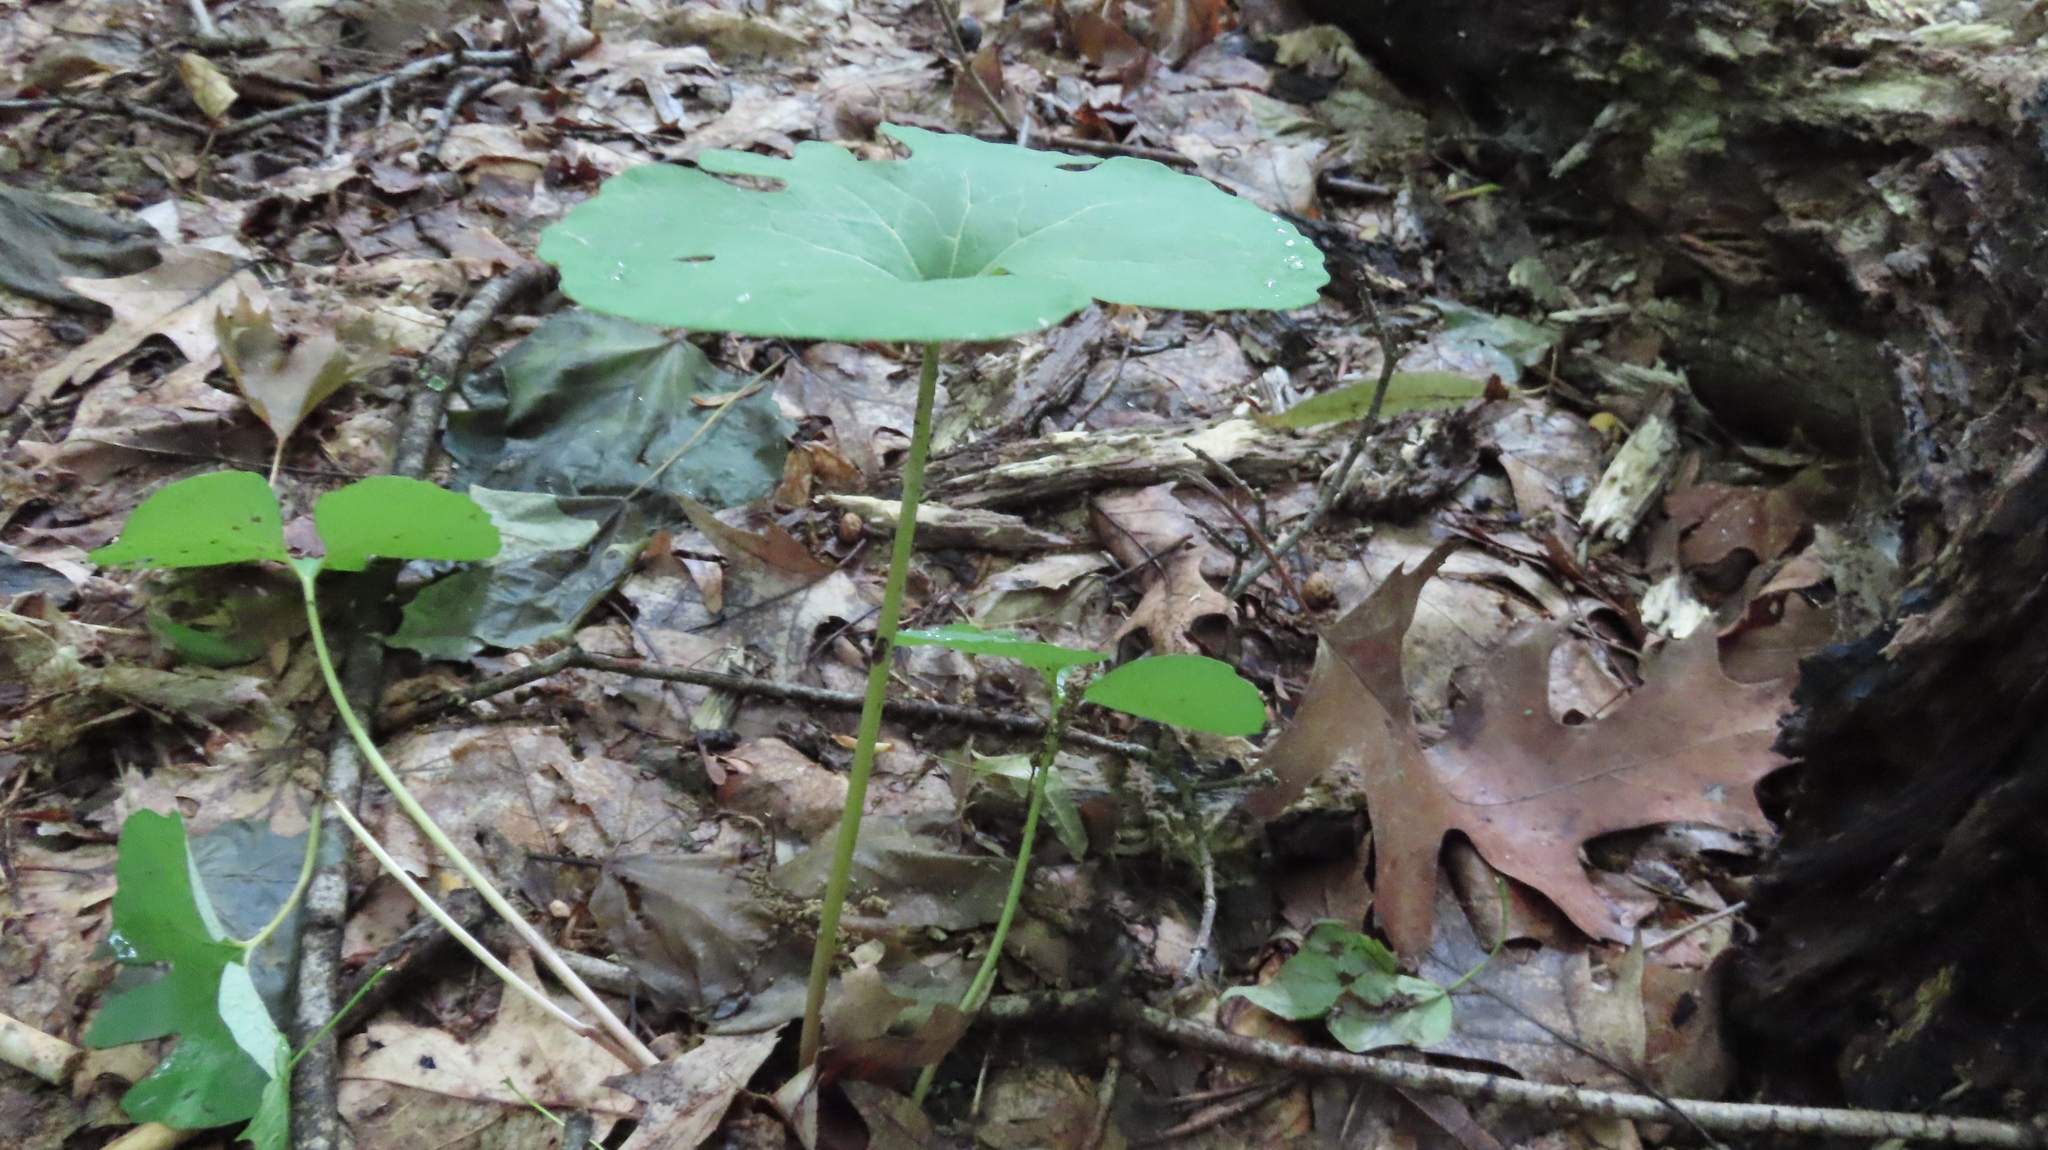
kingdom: Plantae
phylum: Tracheophyta
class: Magnoliopsida
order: Ranunculales
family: Papaveraceae
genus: Sanguinaria
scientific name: Sanguinaria canadensis
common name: Bloodroot
